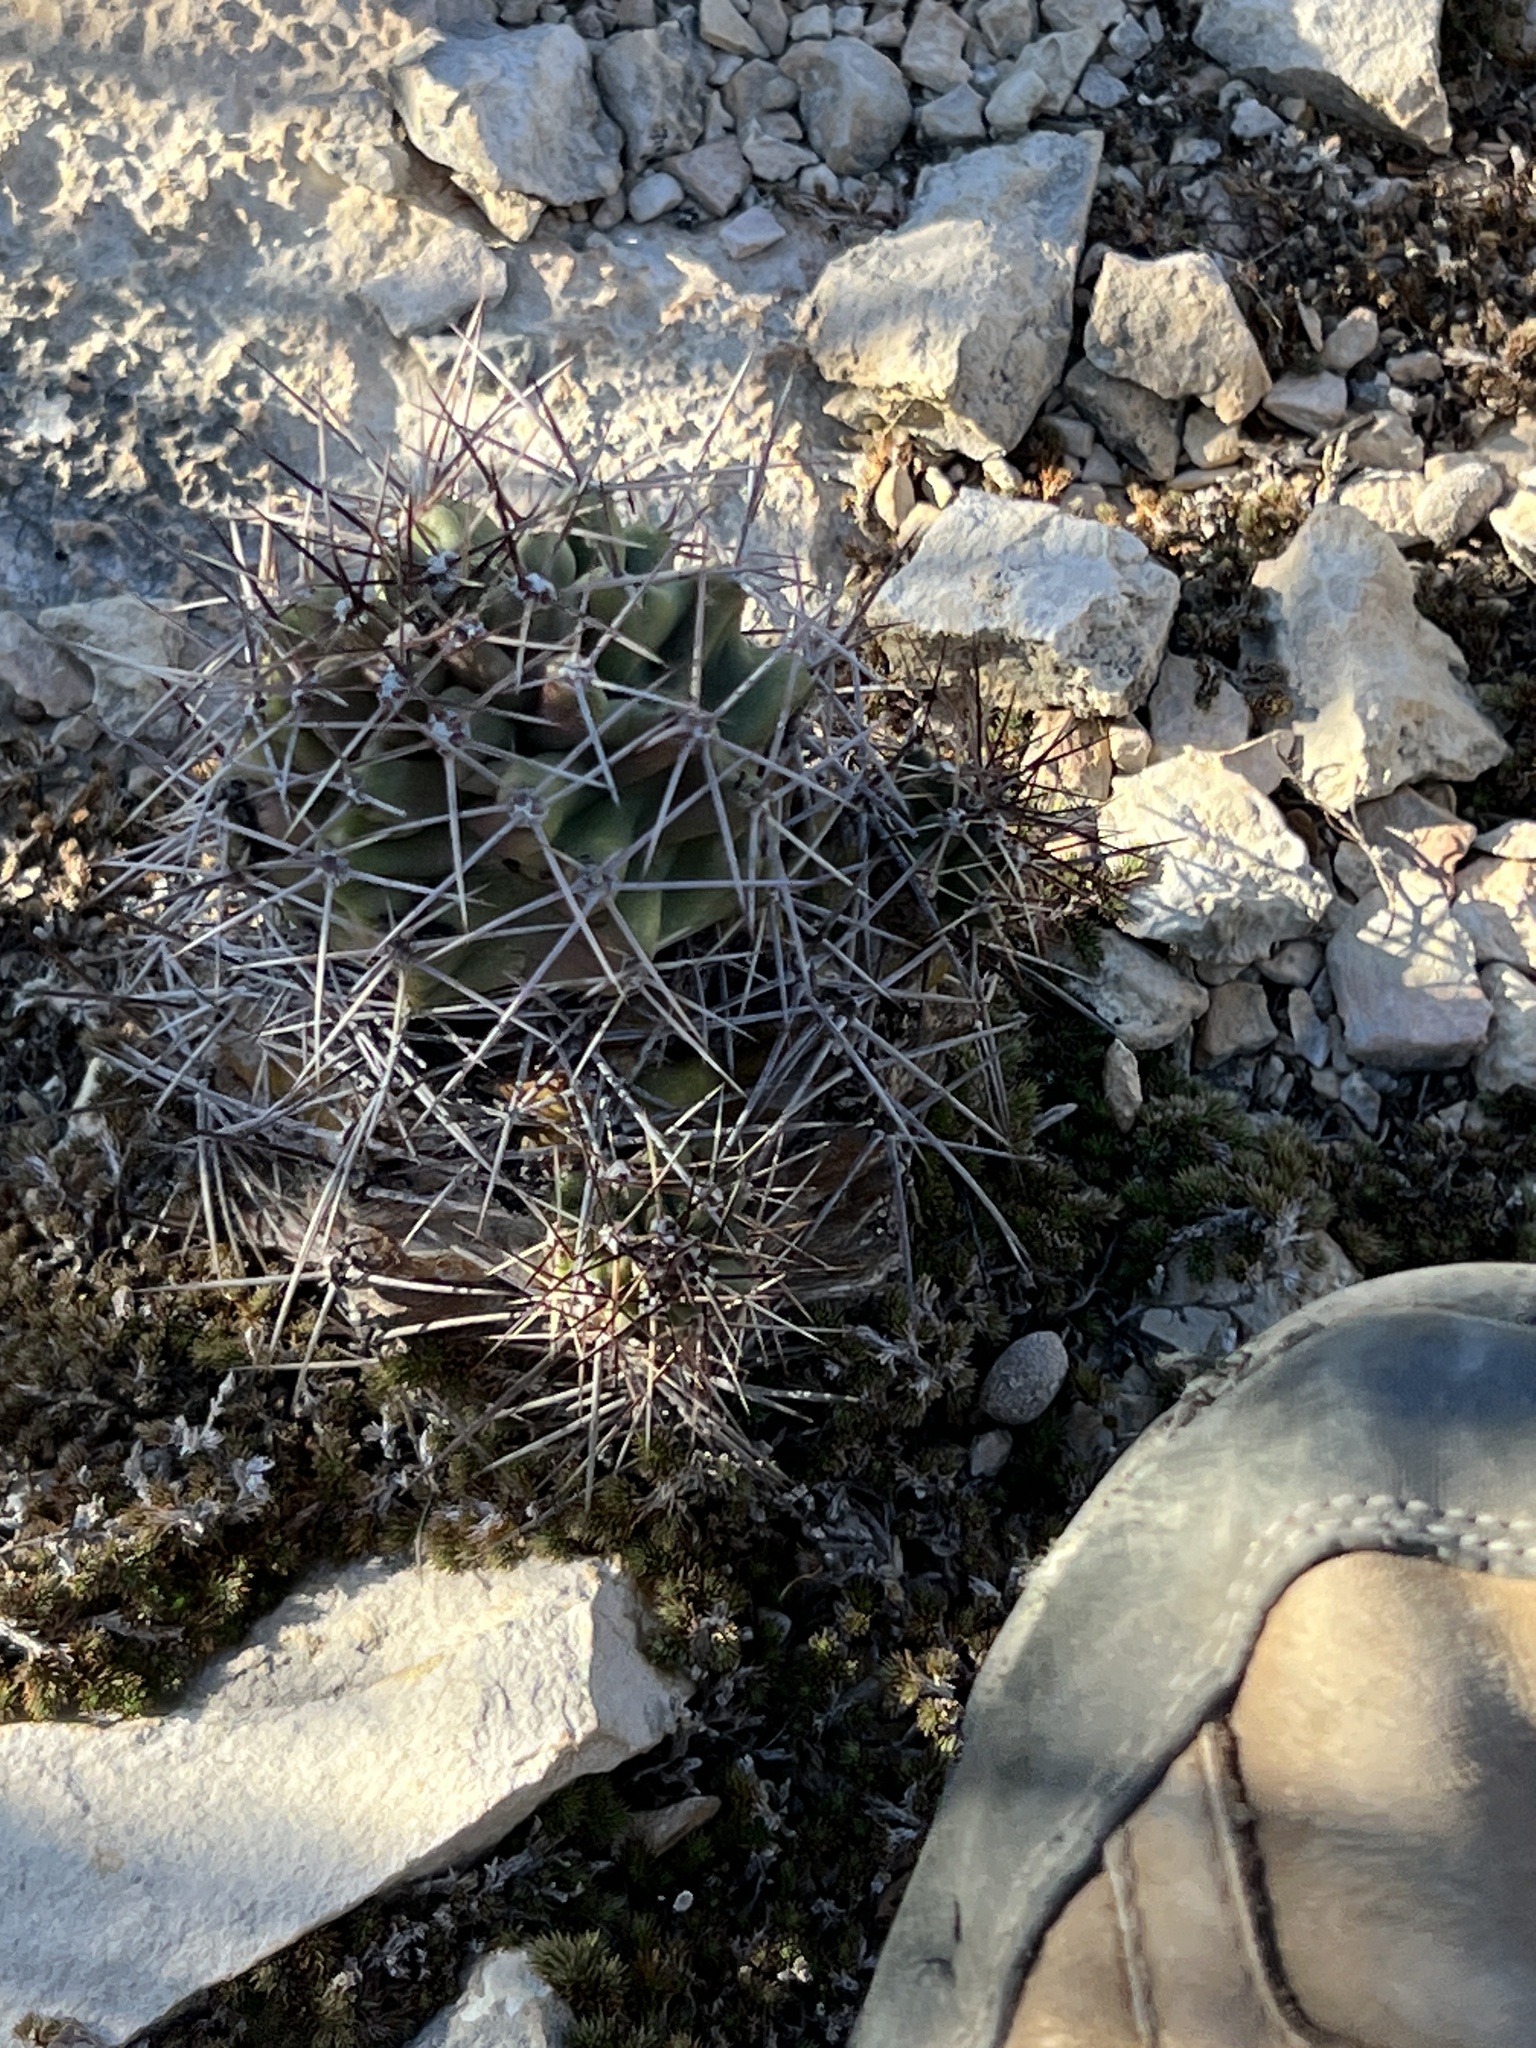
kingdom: Plantae
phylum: Tracheophyta
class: Magnoliopsida
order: Caryophyllales
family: Cactaceae
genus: Echinocereus
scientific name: Echinocereus coccineus
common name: Scarlet hedgehog cactus
